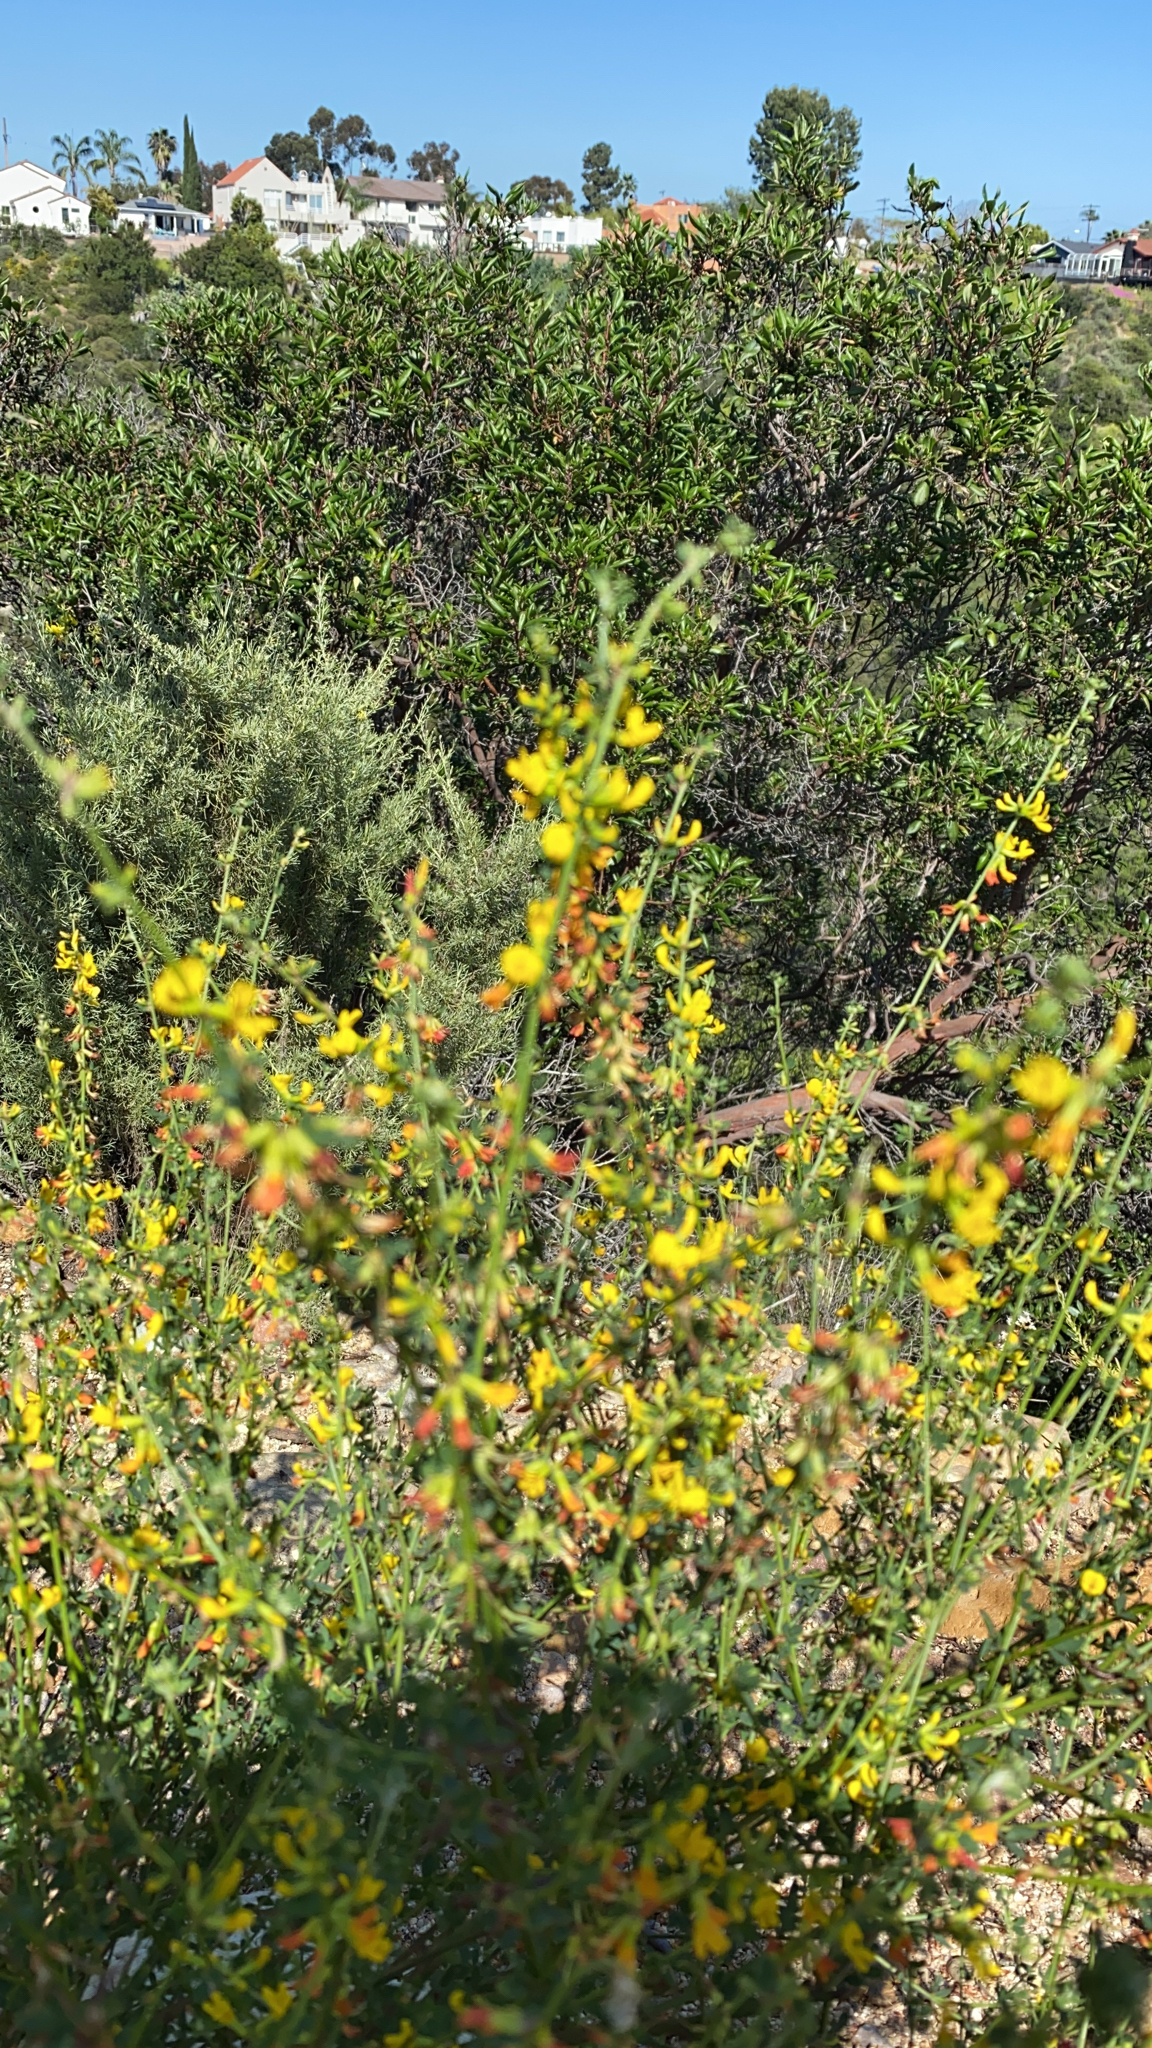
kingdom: Plantae
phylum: Tracheophyta
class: Magnoliopsida
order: Fabales
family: Fabaceae
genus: Acmispon
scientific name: Acmispon glaber
